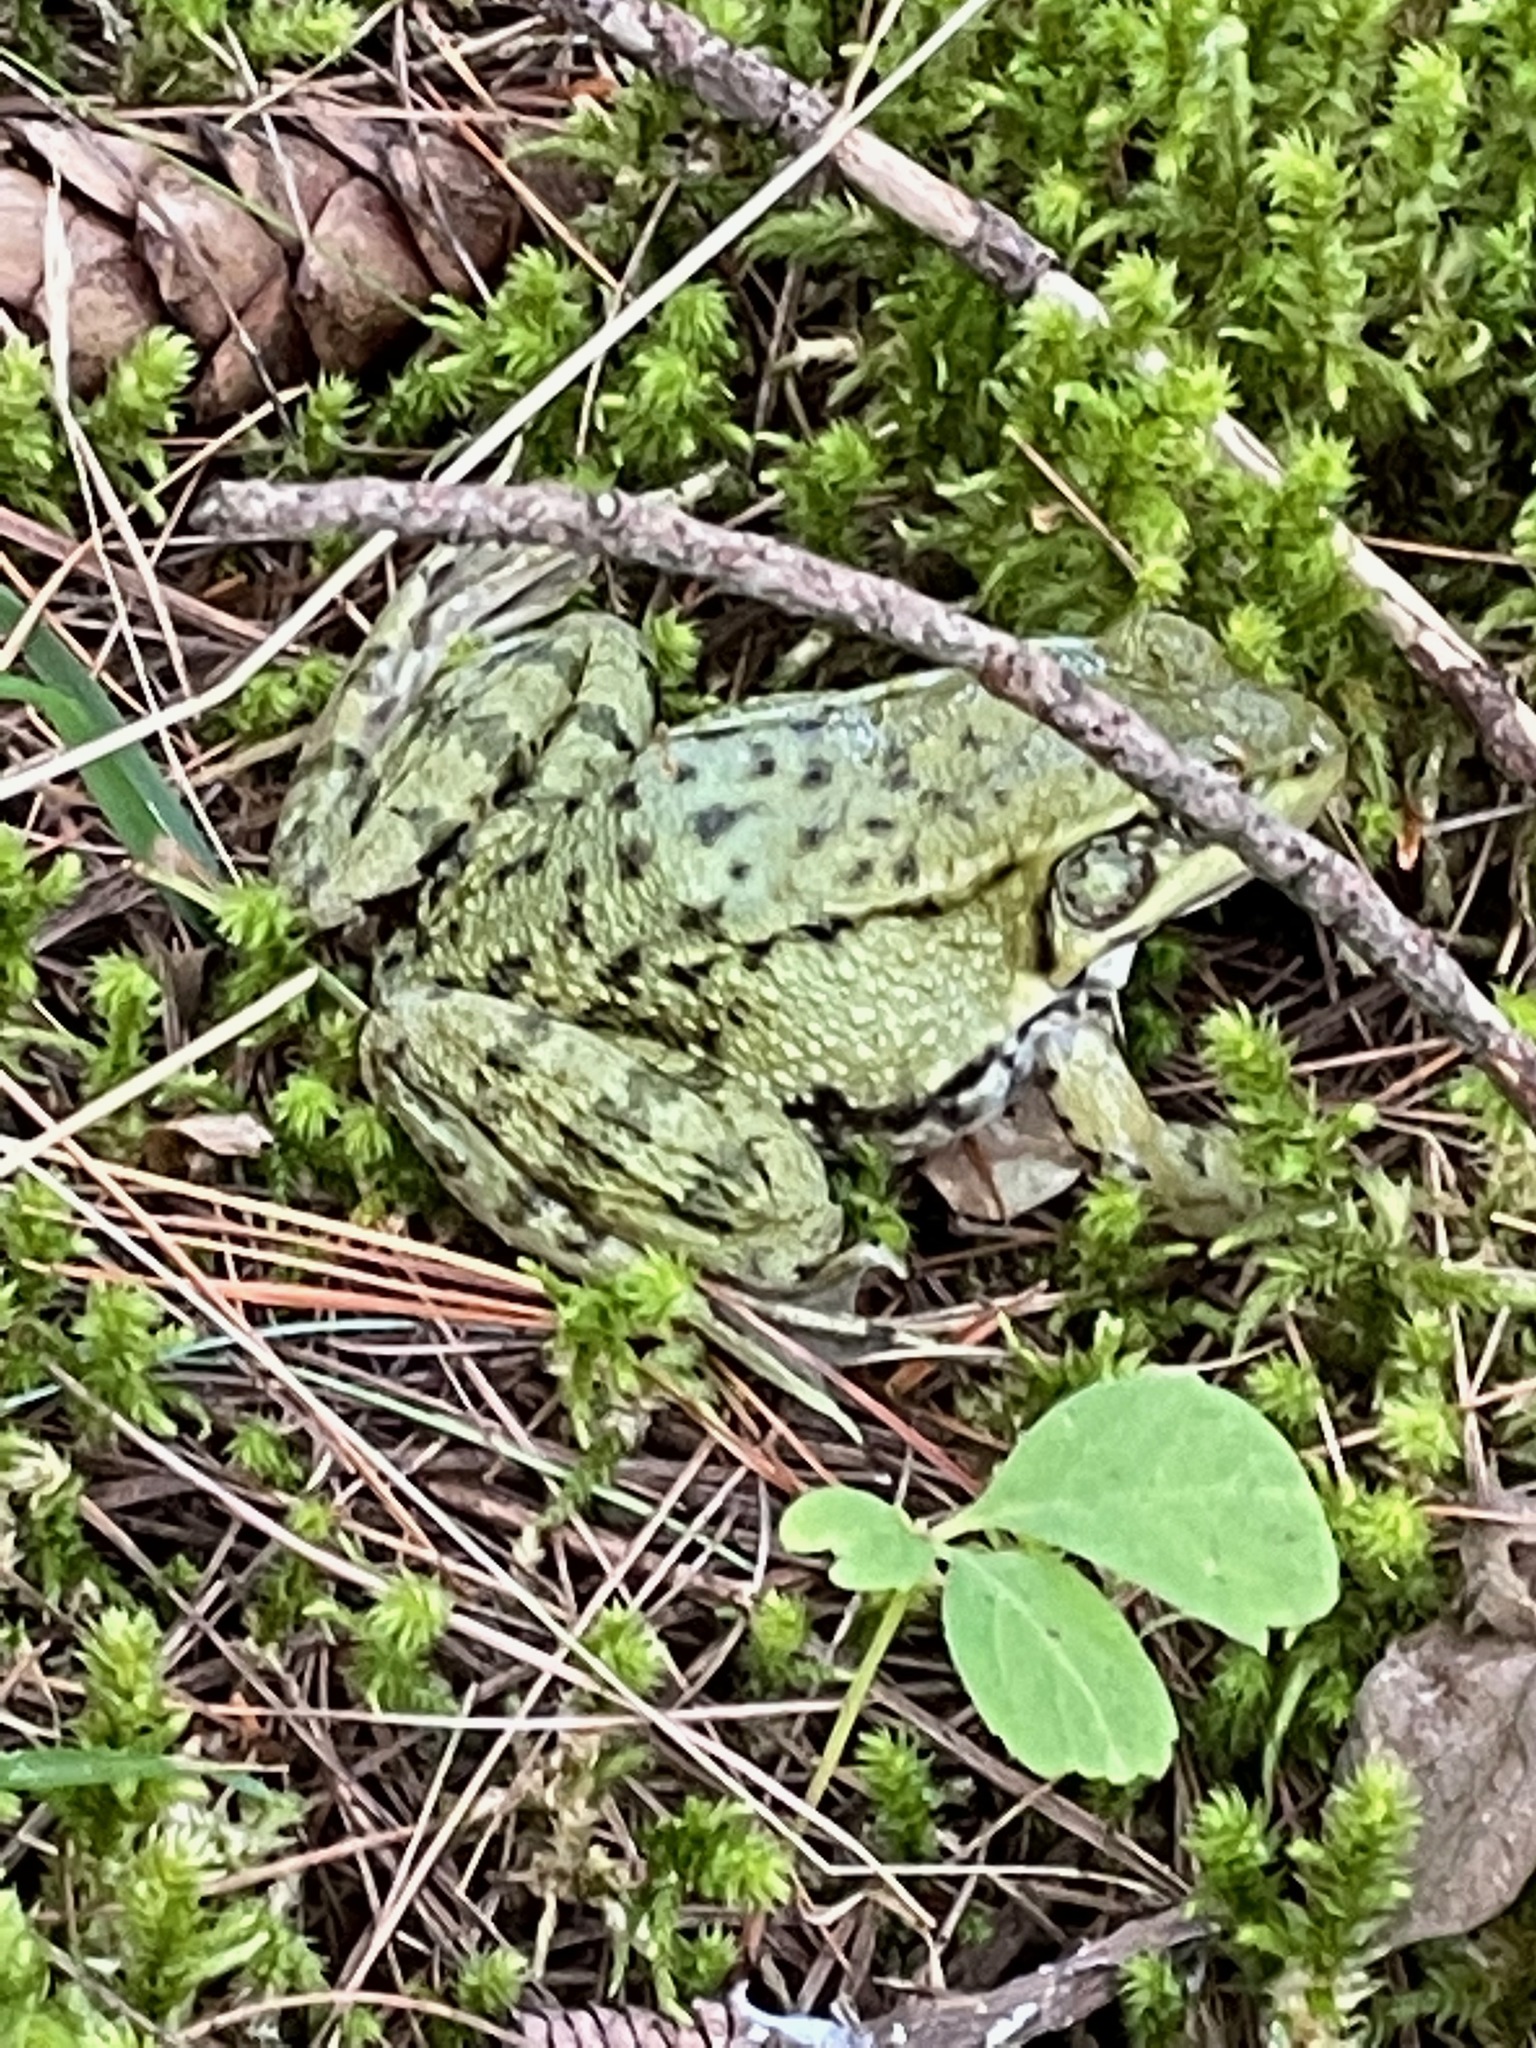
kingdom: Animalia
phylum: Chordata
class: Amphibia
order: Anura
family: Ranidae
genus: Lithobates
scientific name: Lithobates clamitans
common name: Green frog
